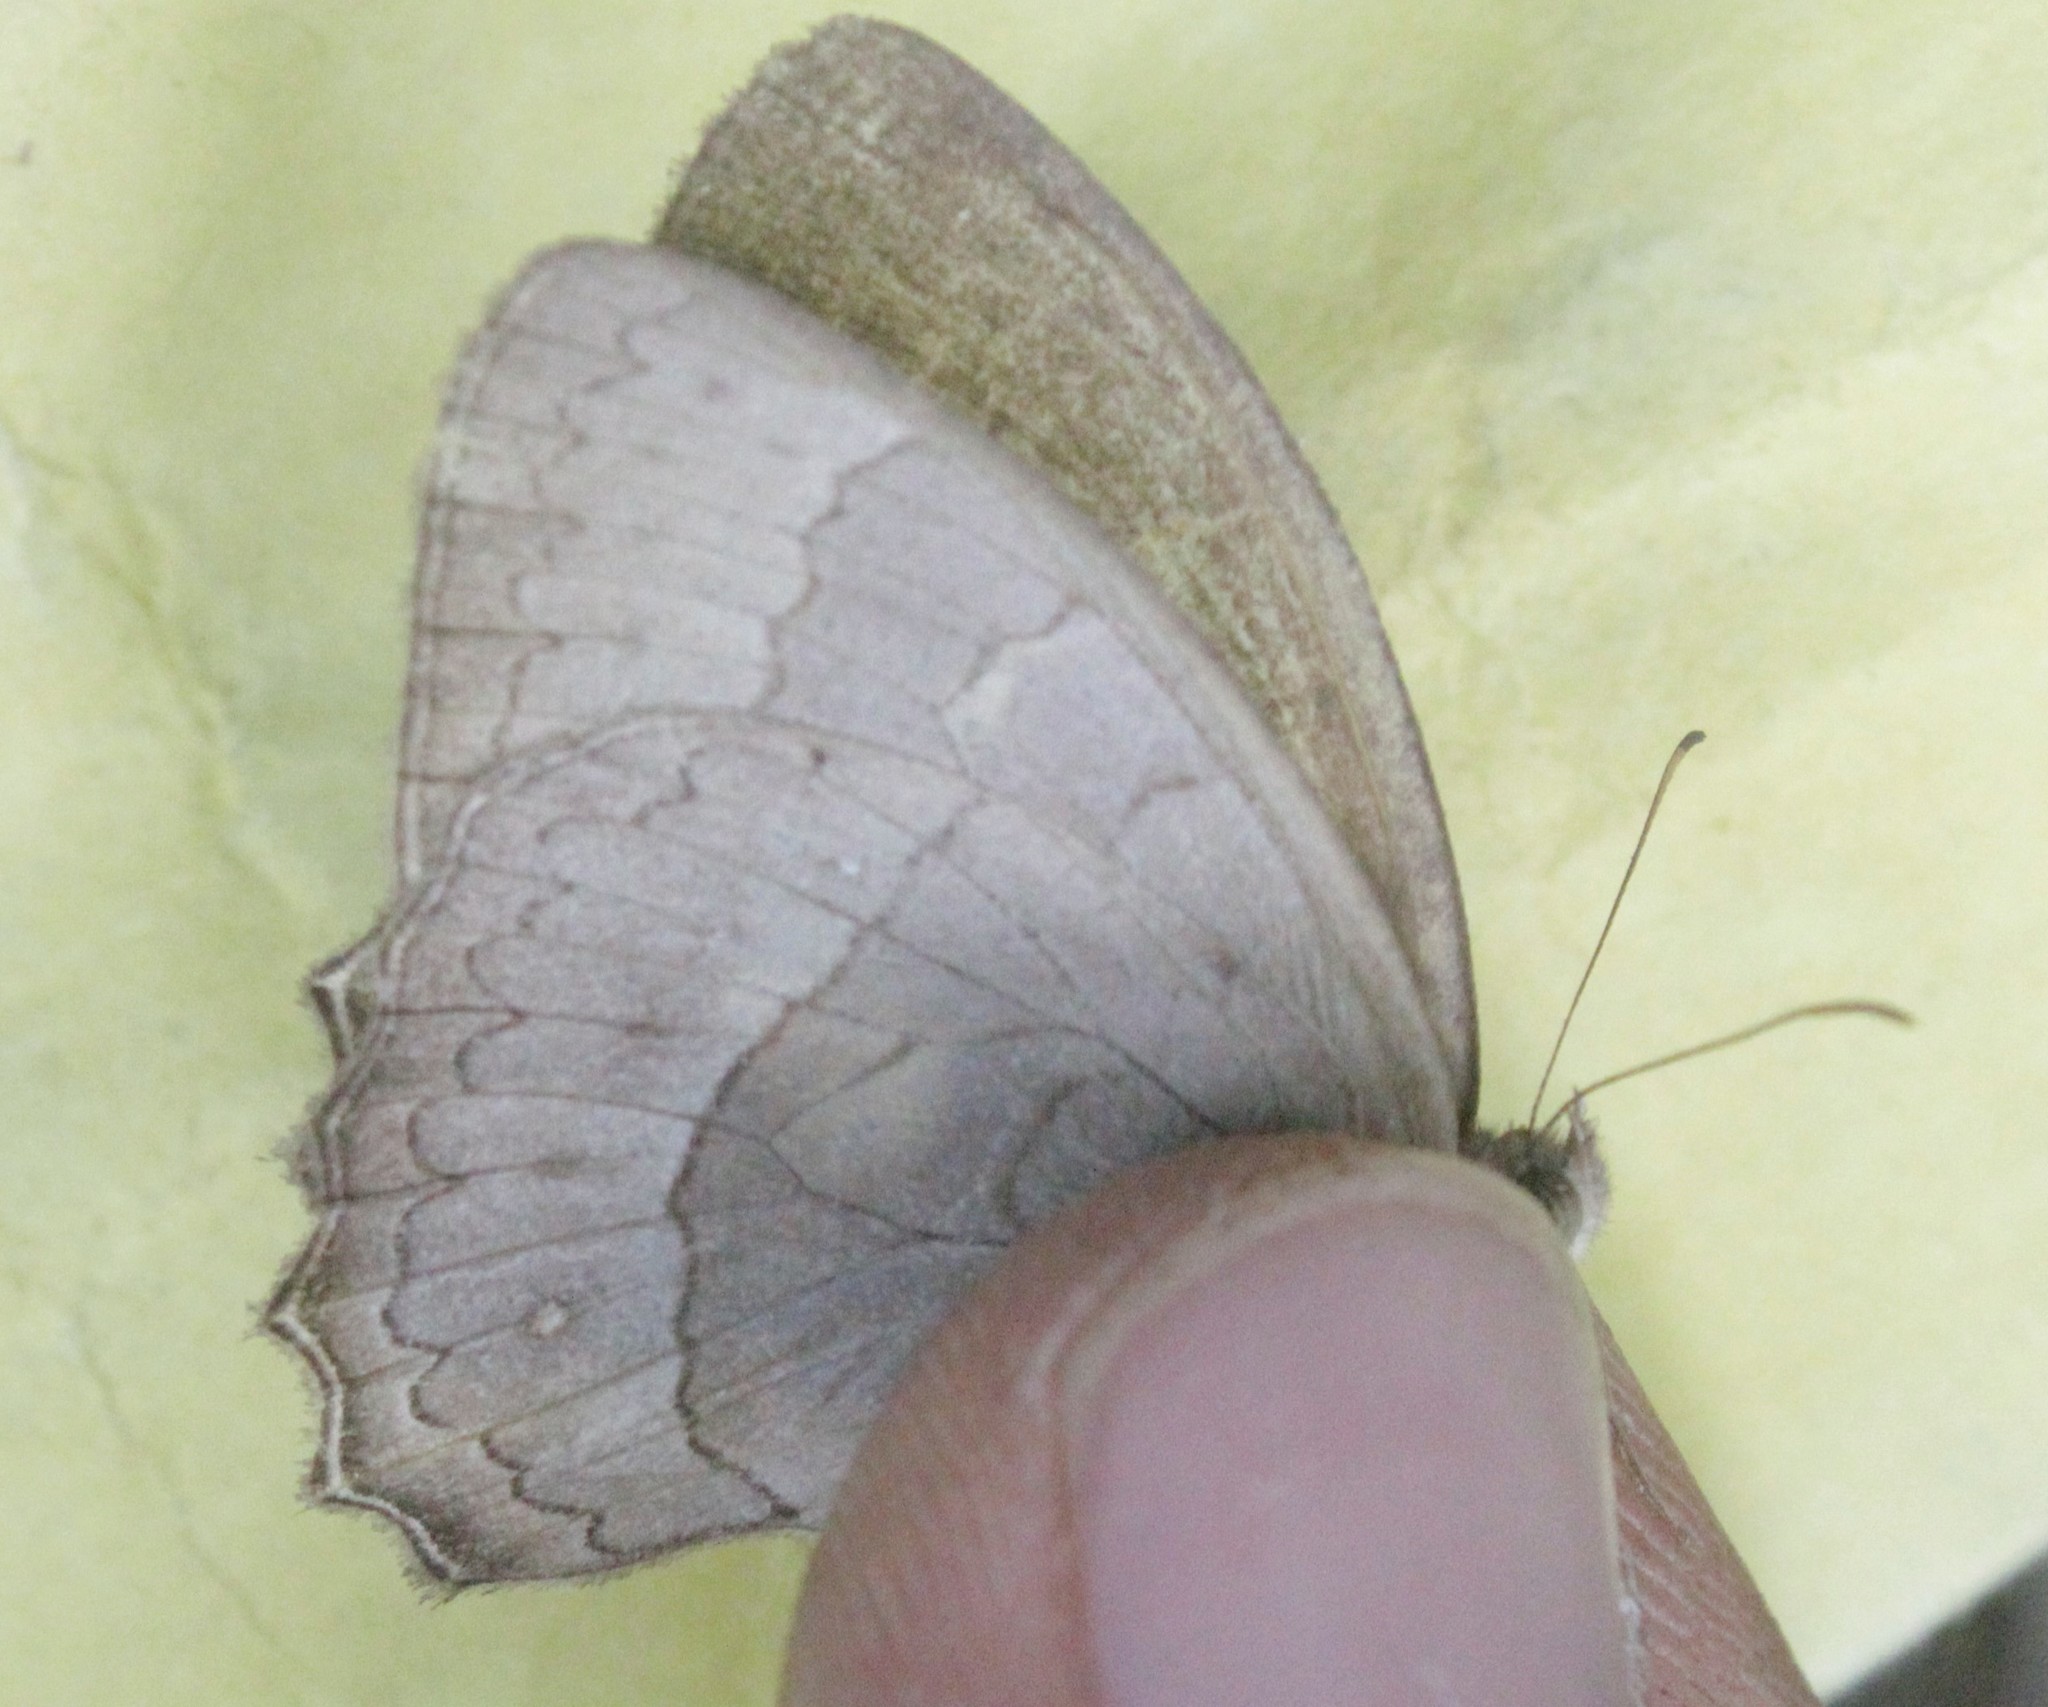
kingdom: Animalia
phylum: Arthropoda
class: Insecta
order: Lepidoptera
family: Nymphalidae
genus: Taygetina
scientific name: Taygetina kerea
